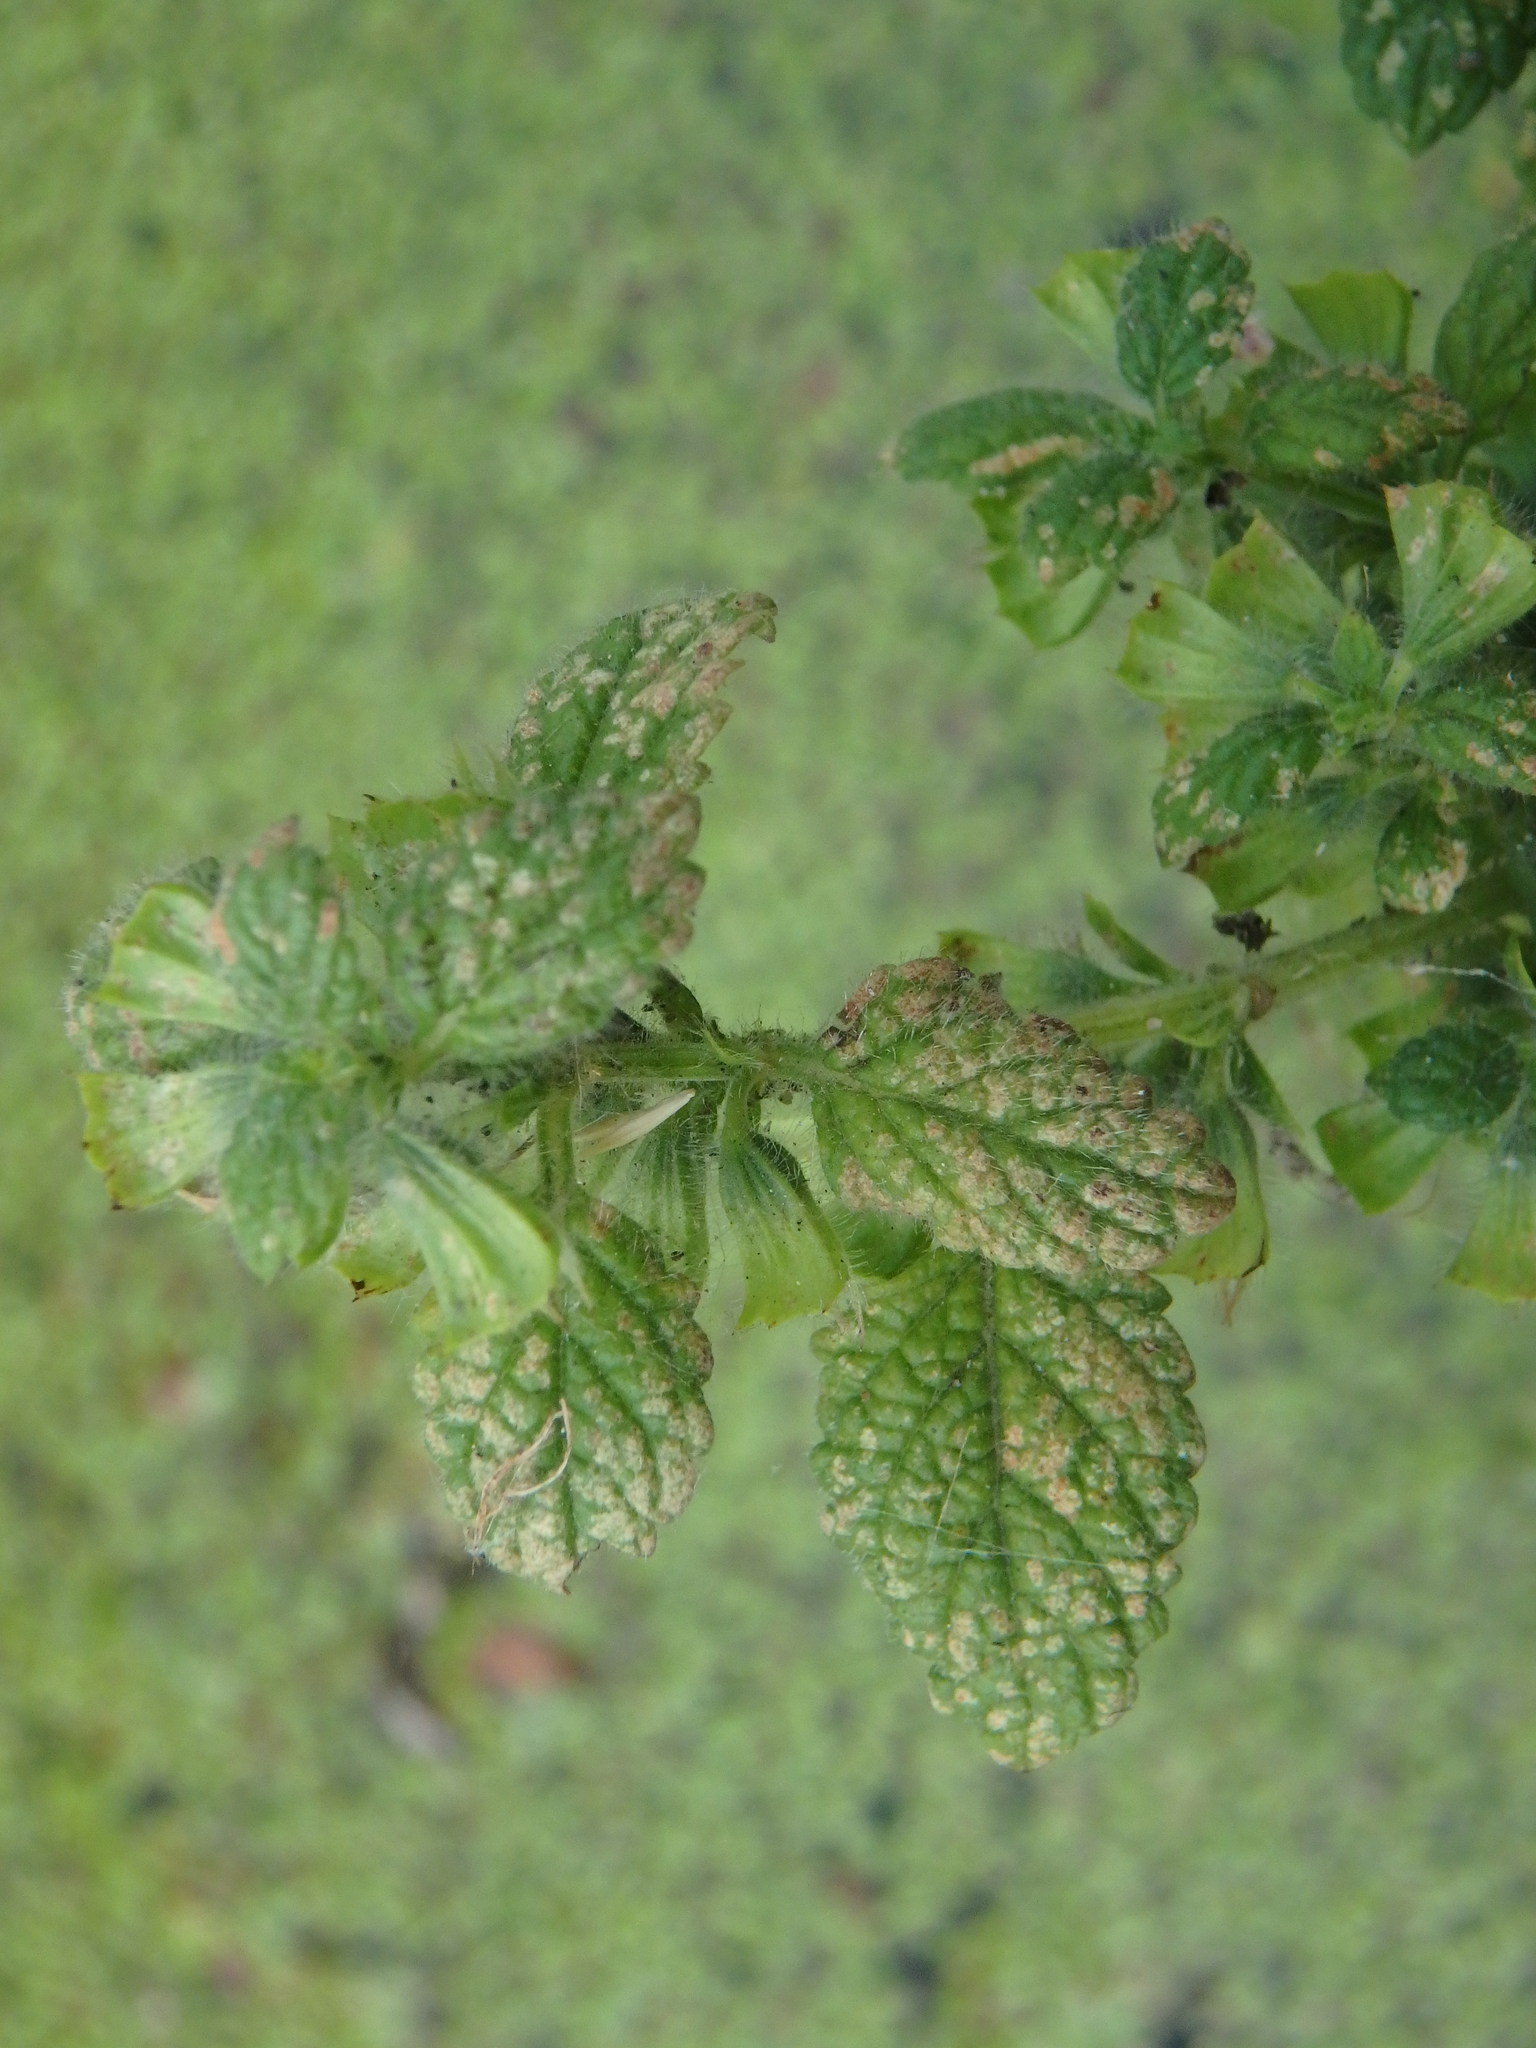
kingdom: Plantae
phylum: Tracheophyta
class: Magnoliopsida
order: Lamiales
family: Lamiaceae
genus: Melissa
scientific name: Melissa officinalis
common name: Balm
